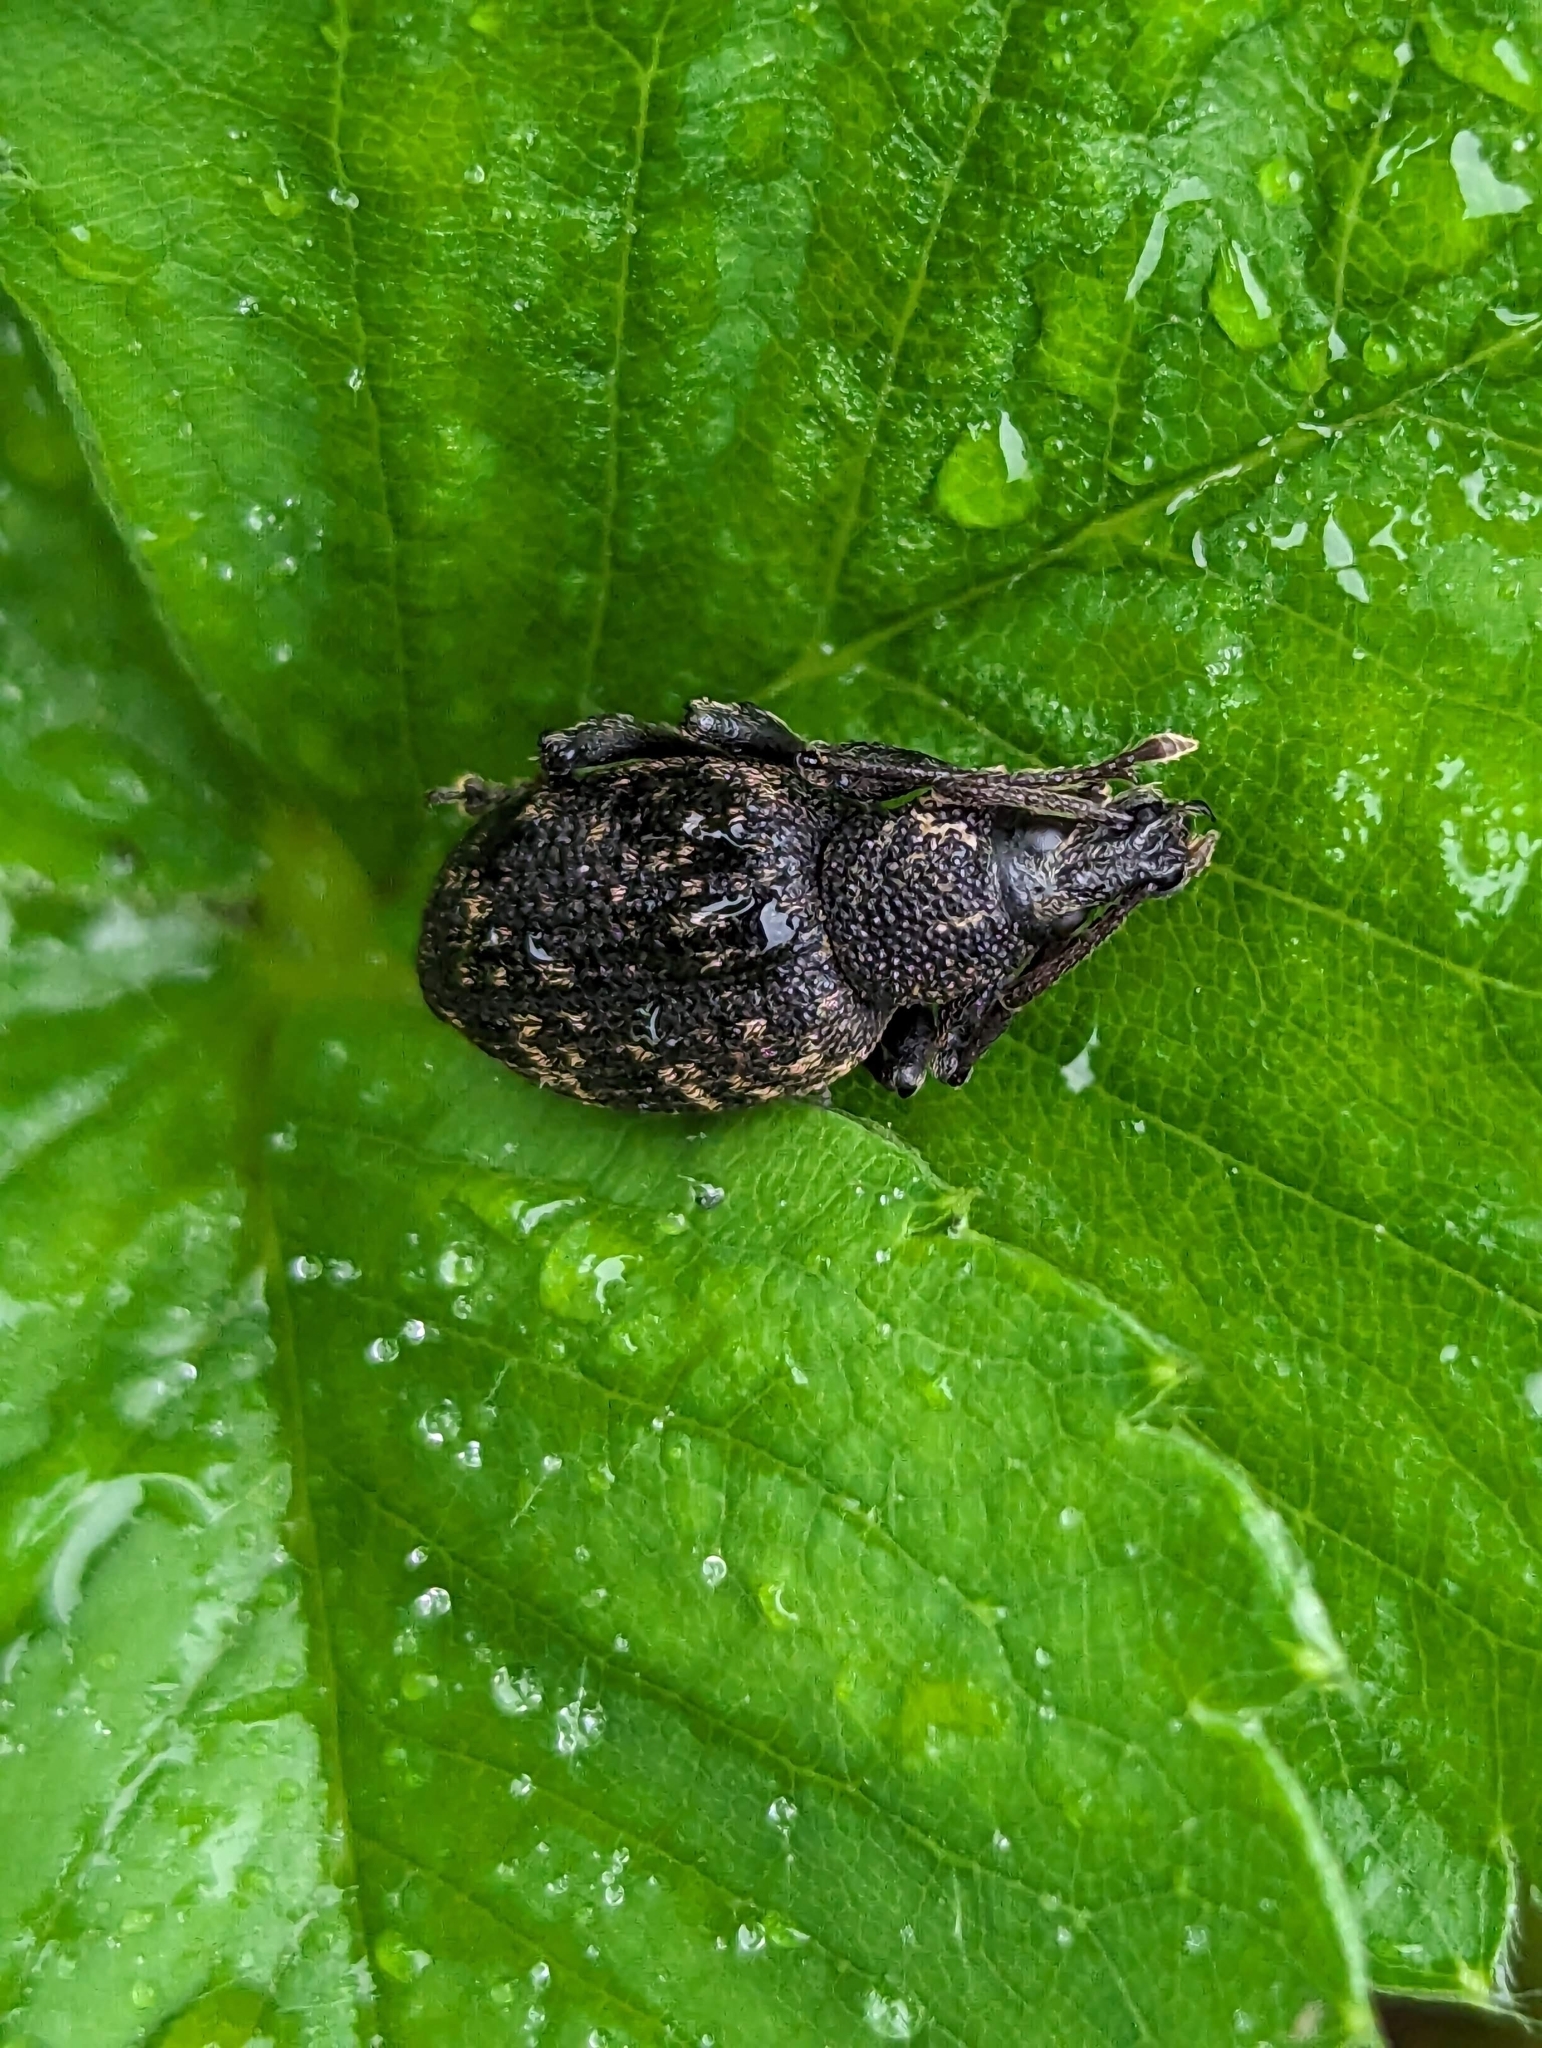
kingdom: Animalia
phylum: Arthropoda
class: Insecta
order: Coleoptera
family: Curculionidae
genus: Otiorhynchus
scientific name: Otiorhynchus sulcatus
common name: Black vine weevil
